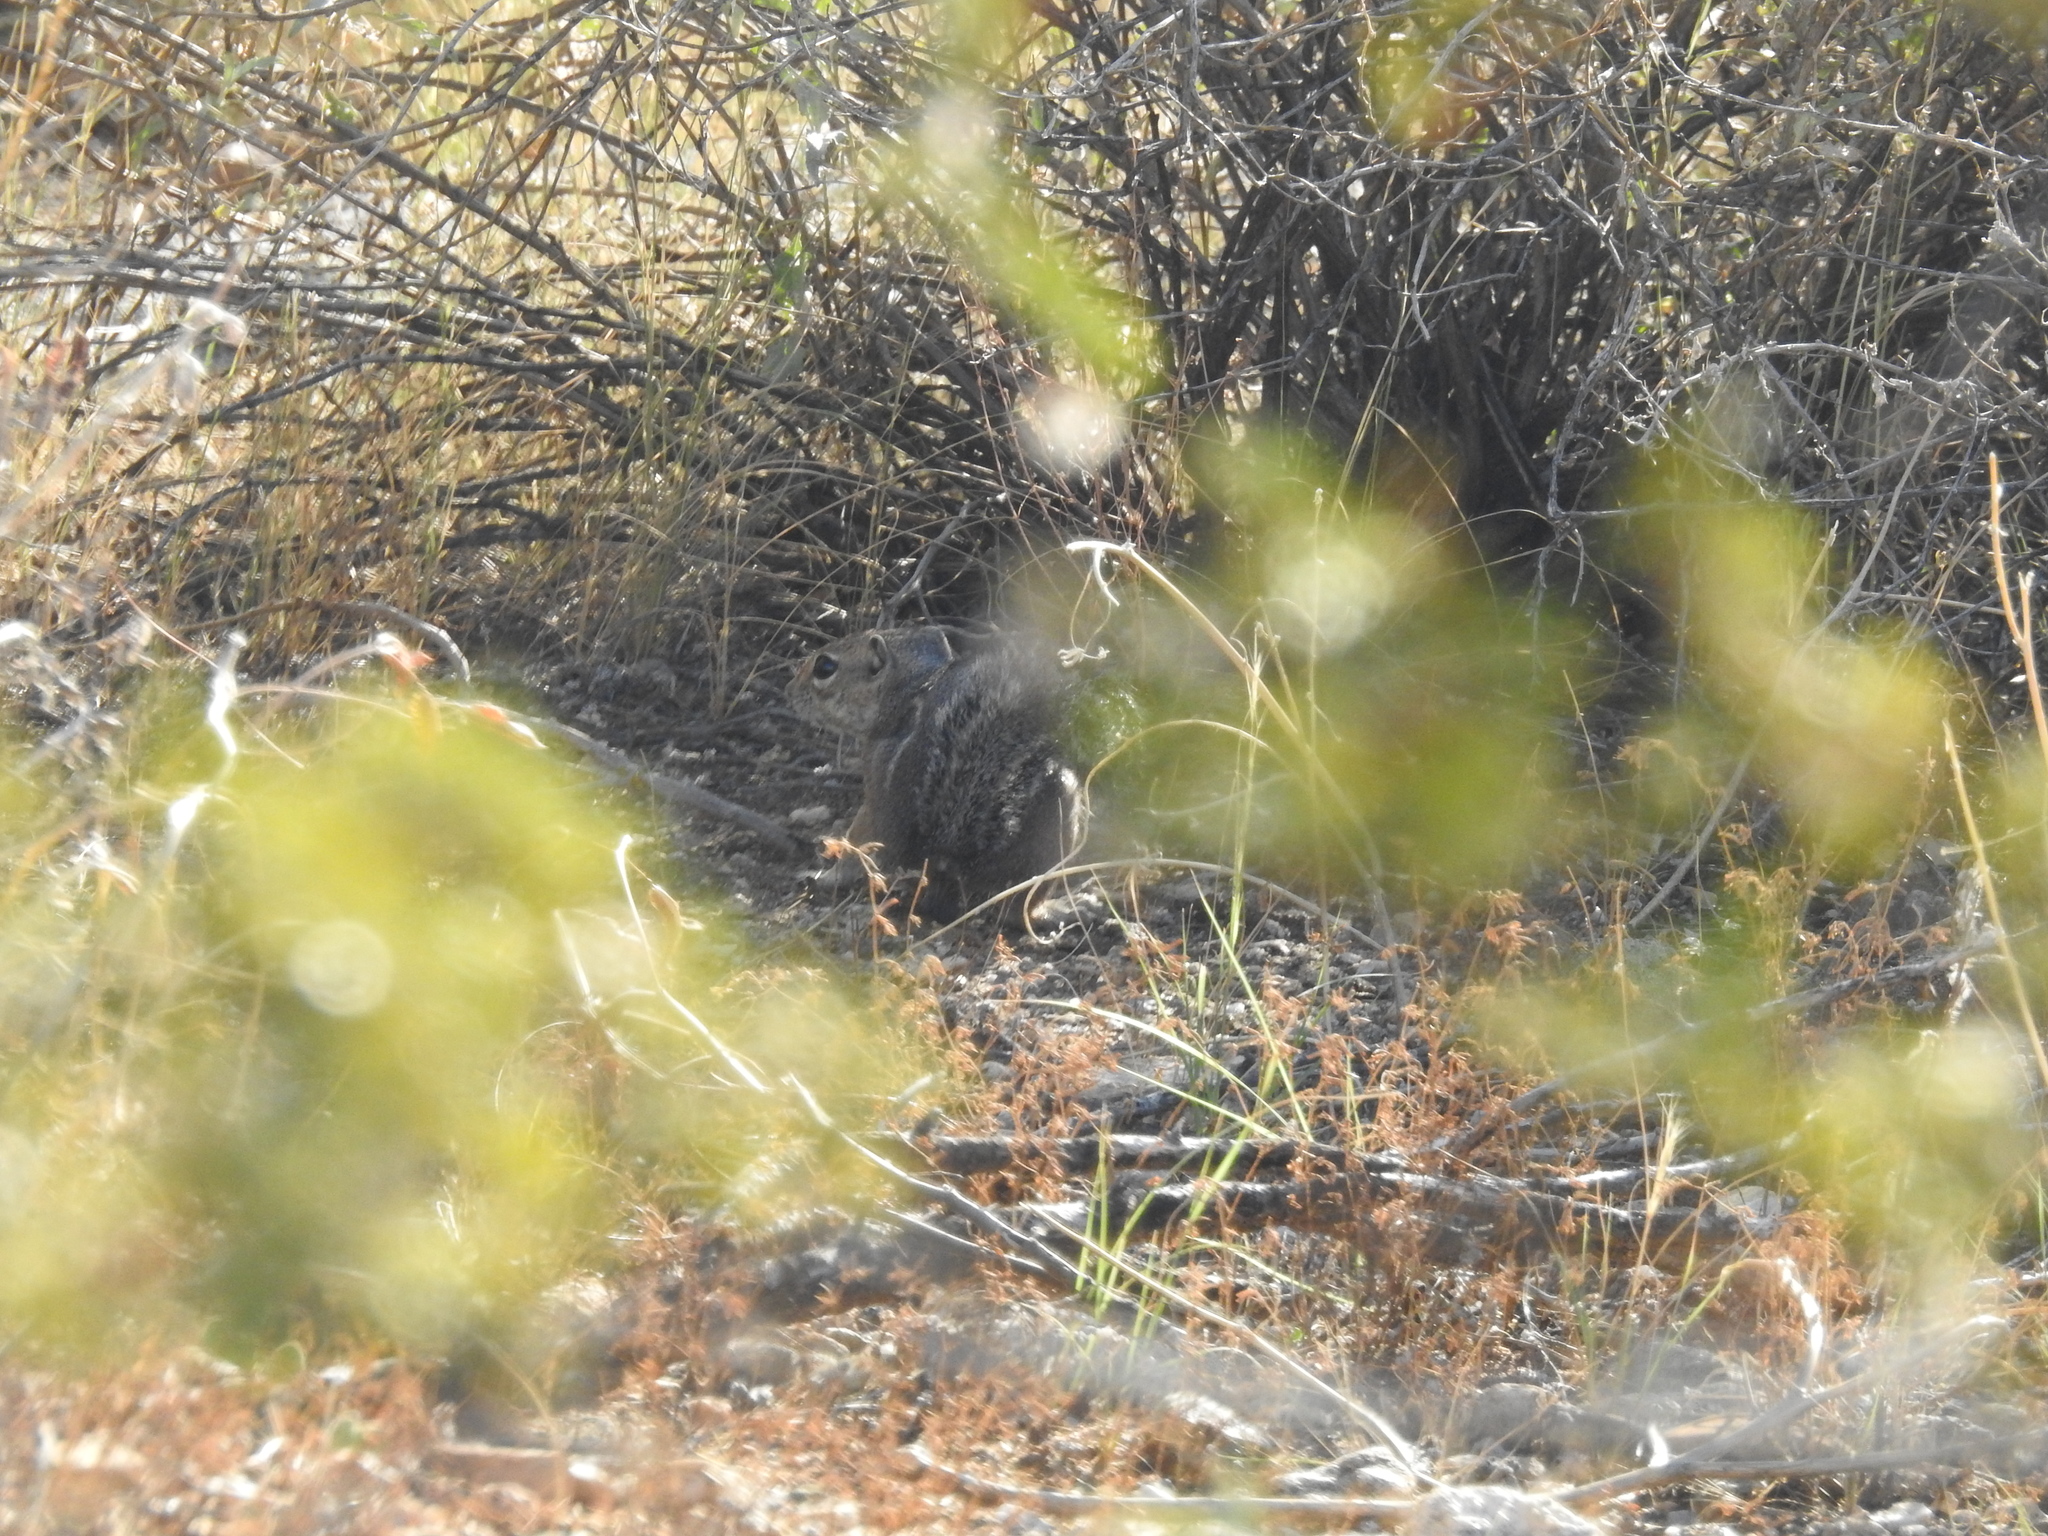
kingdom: Animalia
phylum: Chordata
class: Mammalia
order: Rodentia
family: Sciuridae
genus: Ammospermophilus
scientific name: Ammospermophilus harrisii
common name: Harris's antelope squirrel
